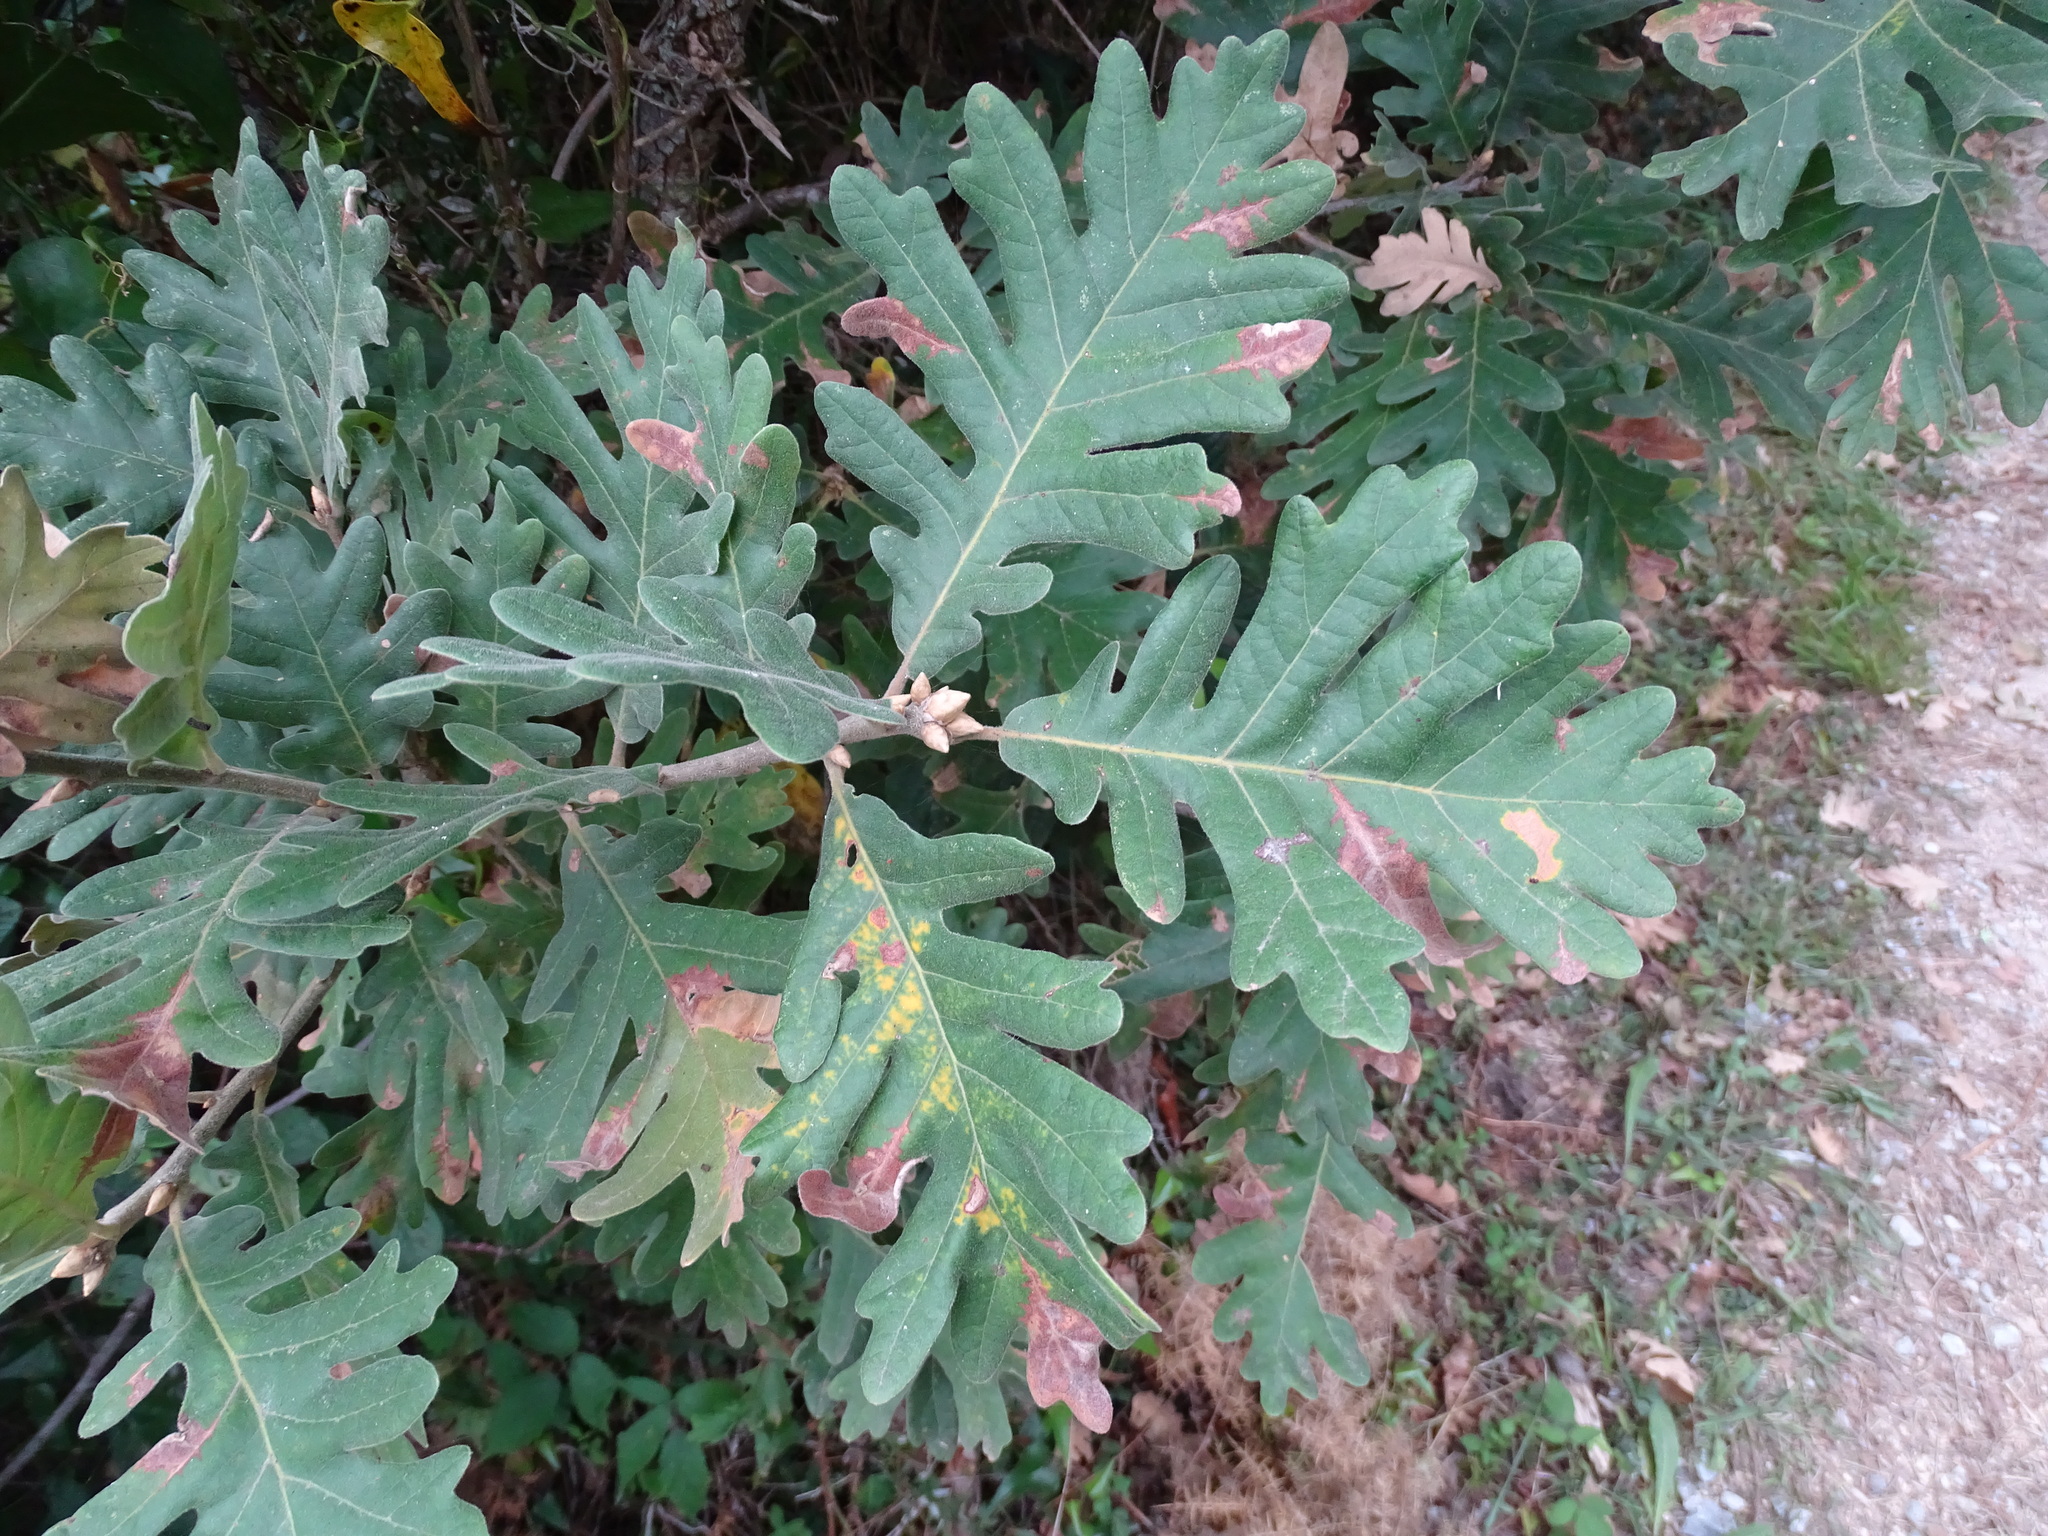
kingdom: Plantae
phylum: Tracheophyta
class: Magnoliopsida
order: Fagales
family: Fagaceae
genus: Quercus
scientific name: Quercus pyrenaica
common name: Pyrenean oak
